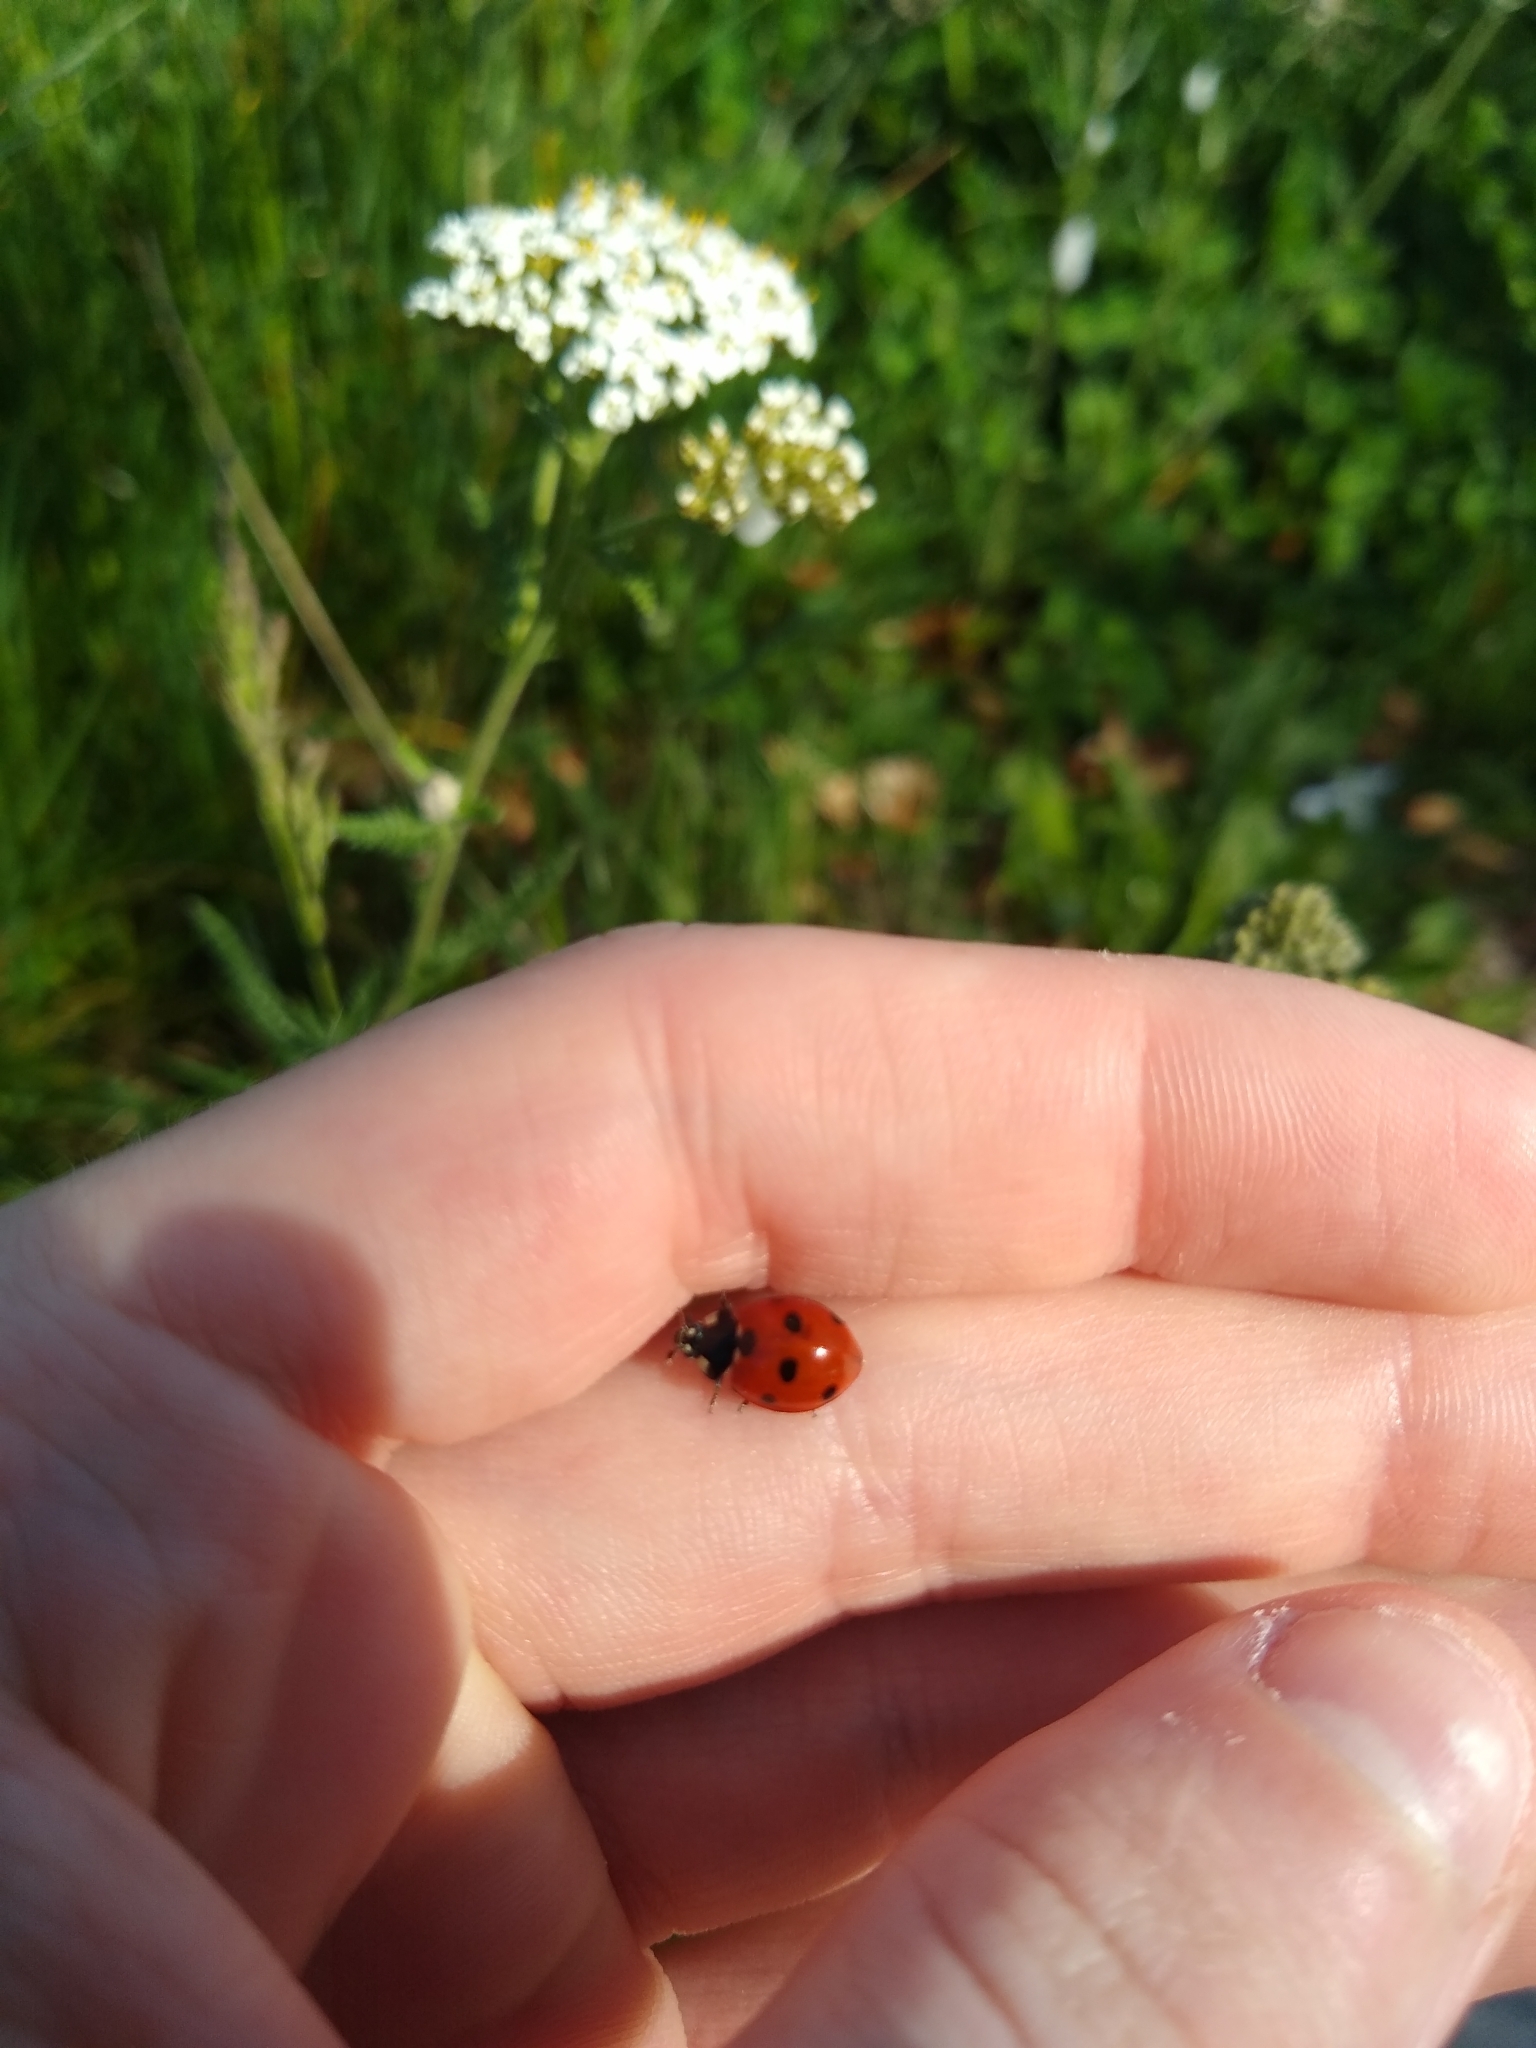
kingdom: Animalia
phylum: Arthropoda
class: Insecta
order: Coleoptera
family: Coccinellidae
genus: Coccinella
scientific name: Coccinella septempunctata
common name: Sevenspotted lady beetle
